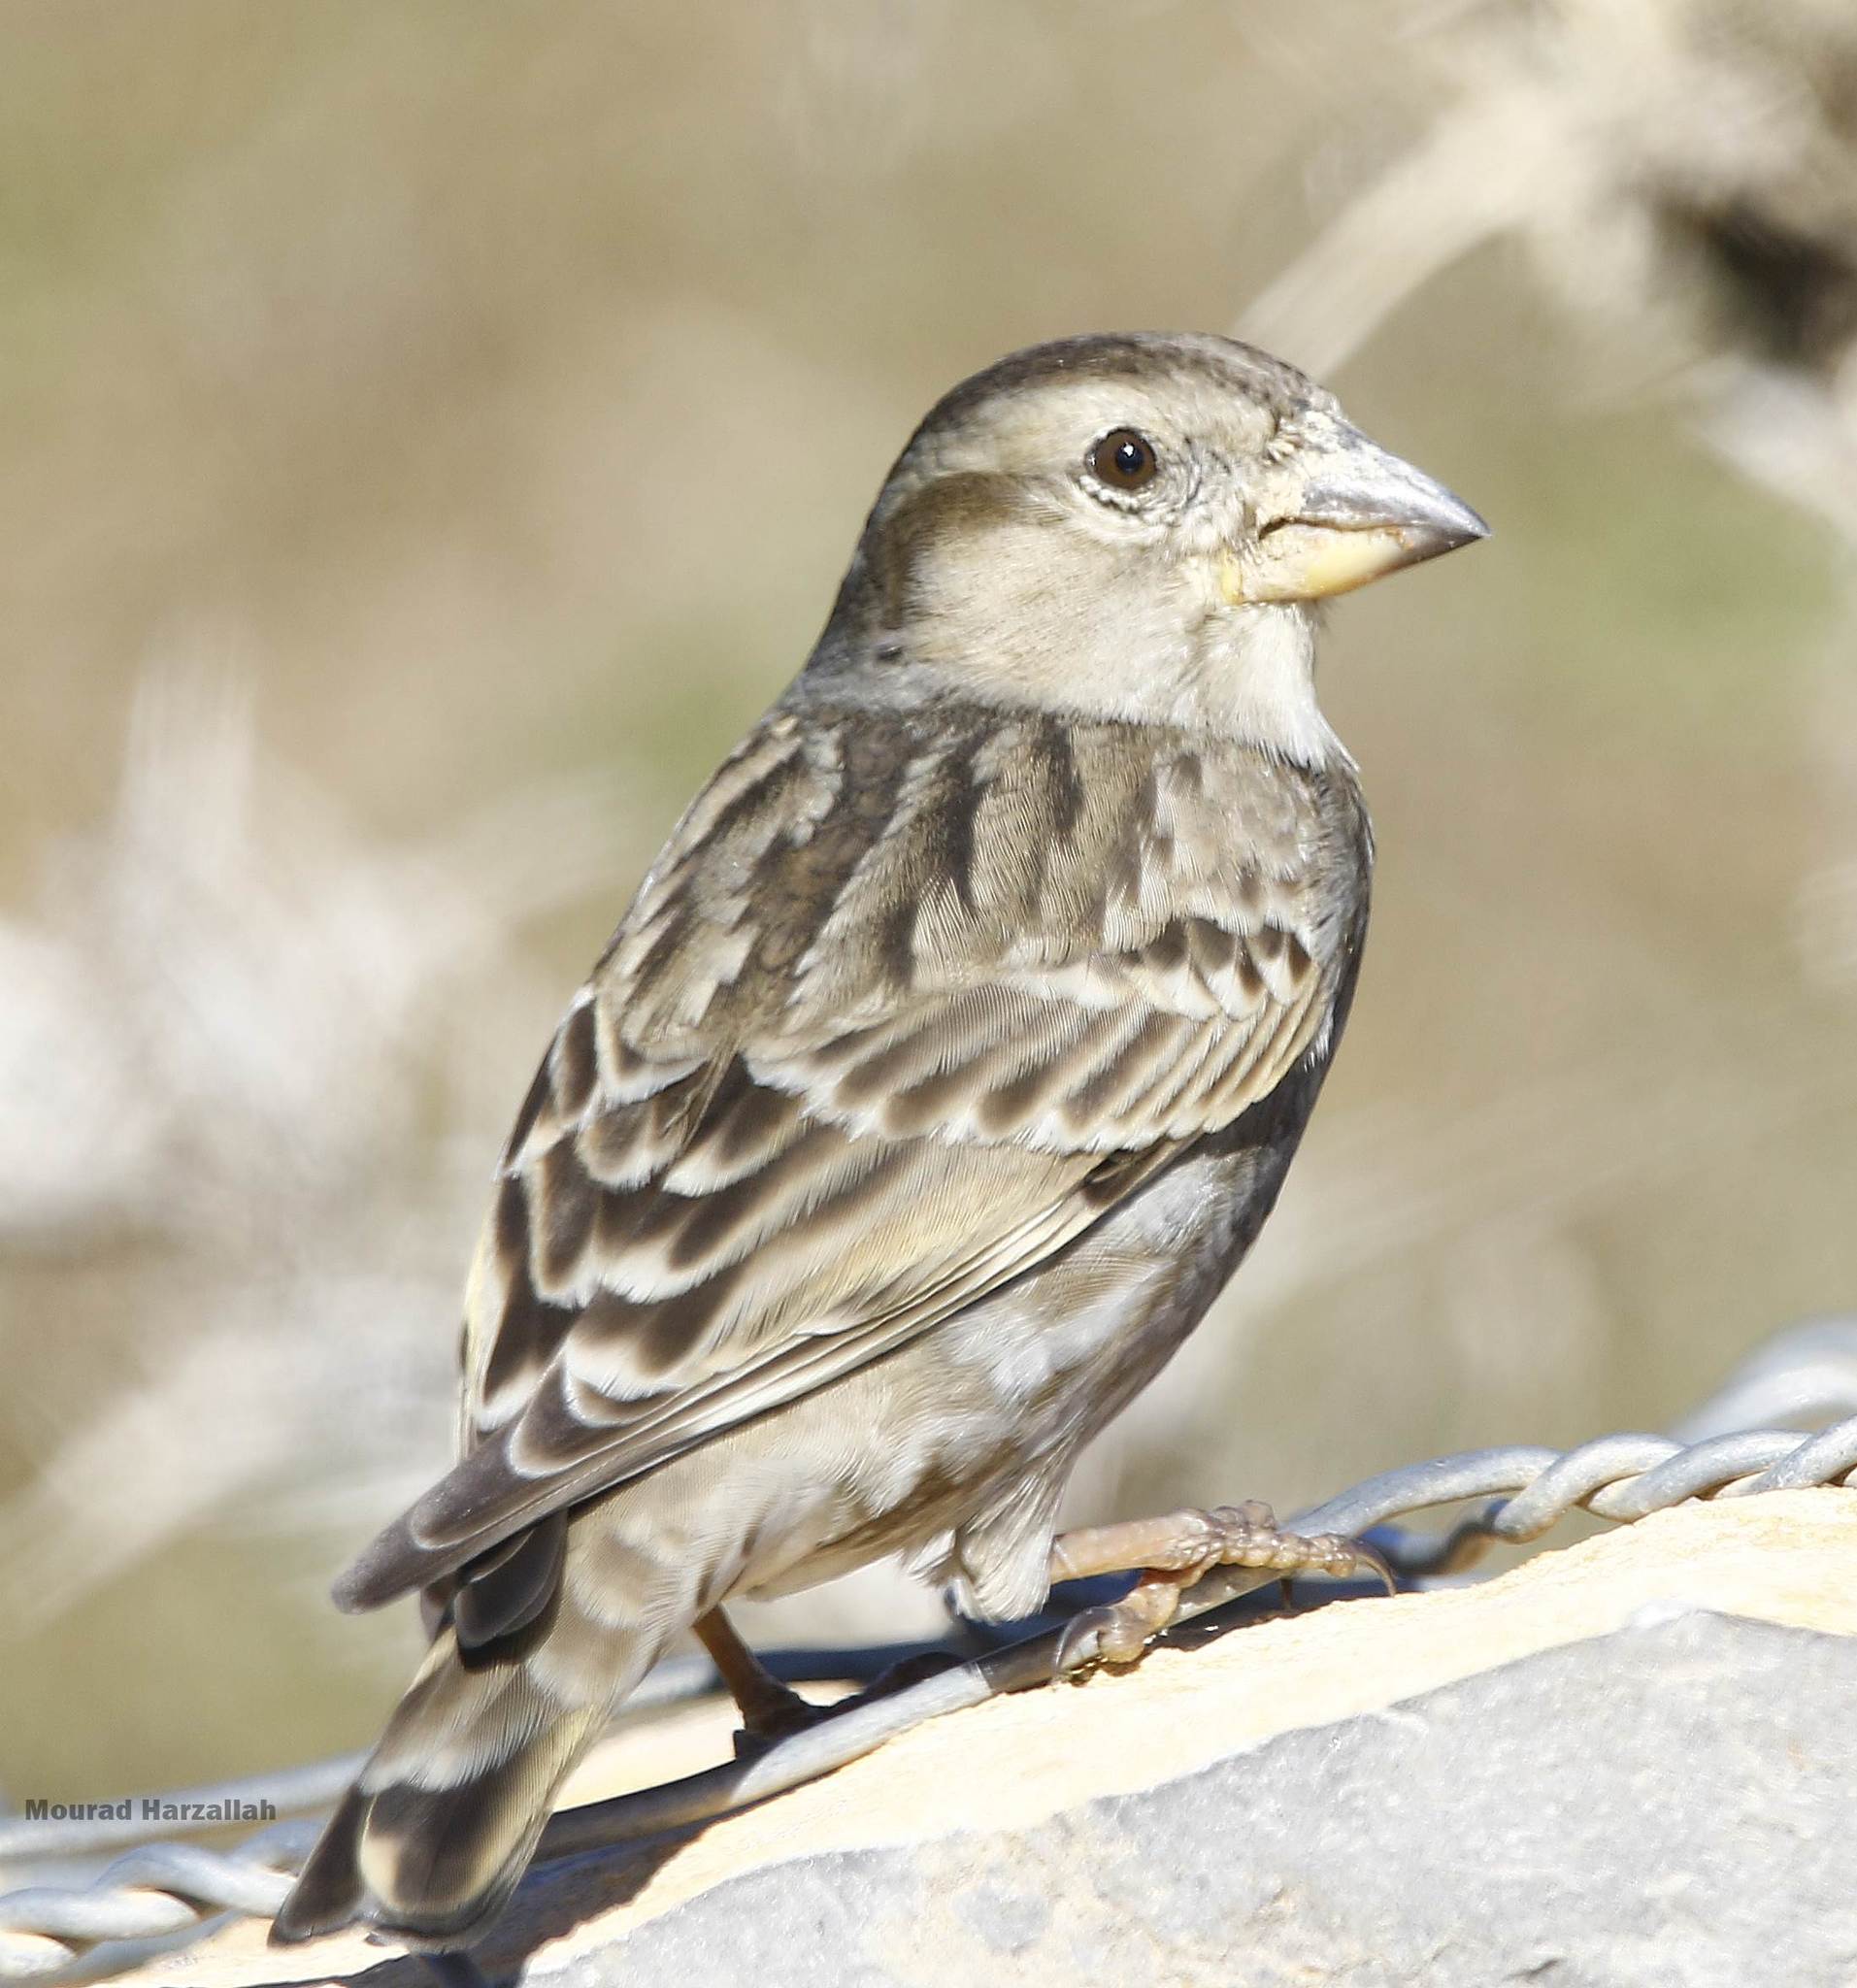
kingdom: Animalia
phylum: Chordata
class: Aves
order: Passeriformes
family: Passeridae
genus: Petronia
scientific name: Petronia petronia
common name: Rock sparrow
